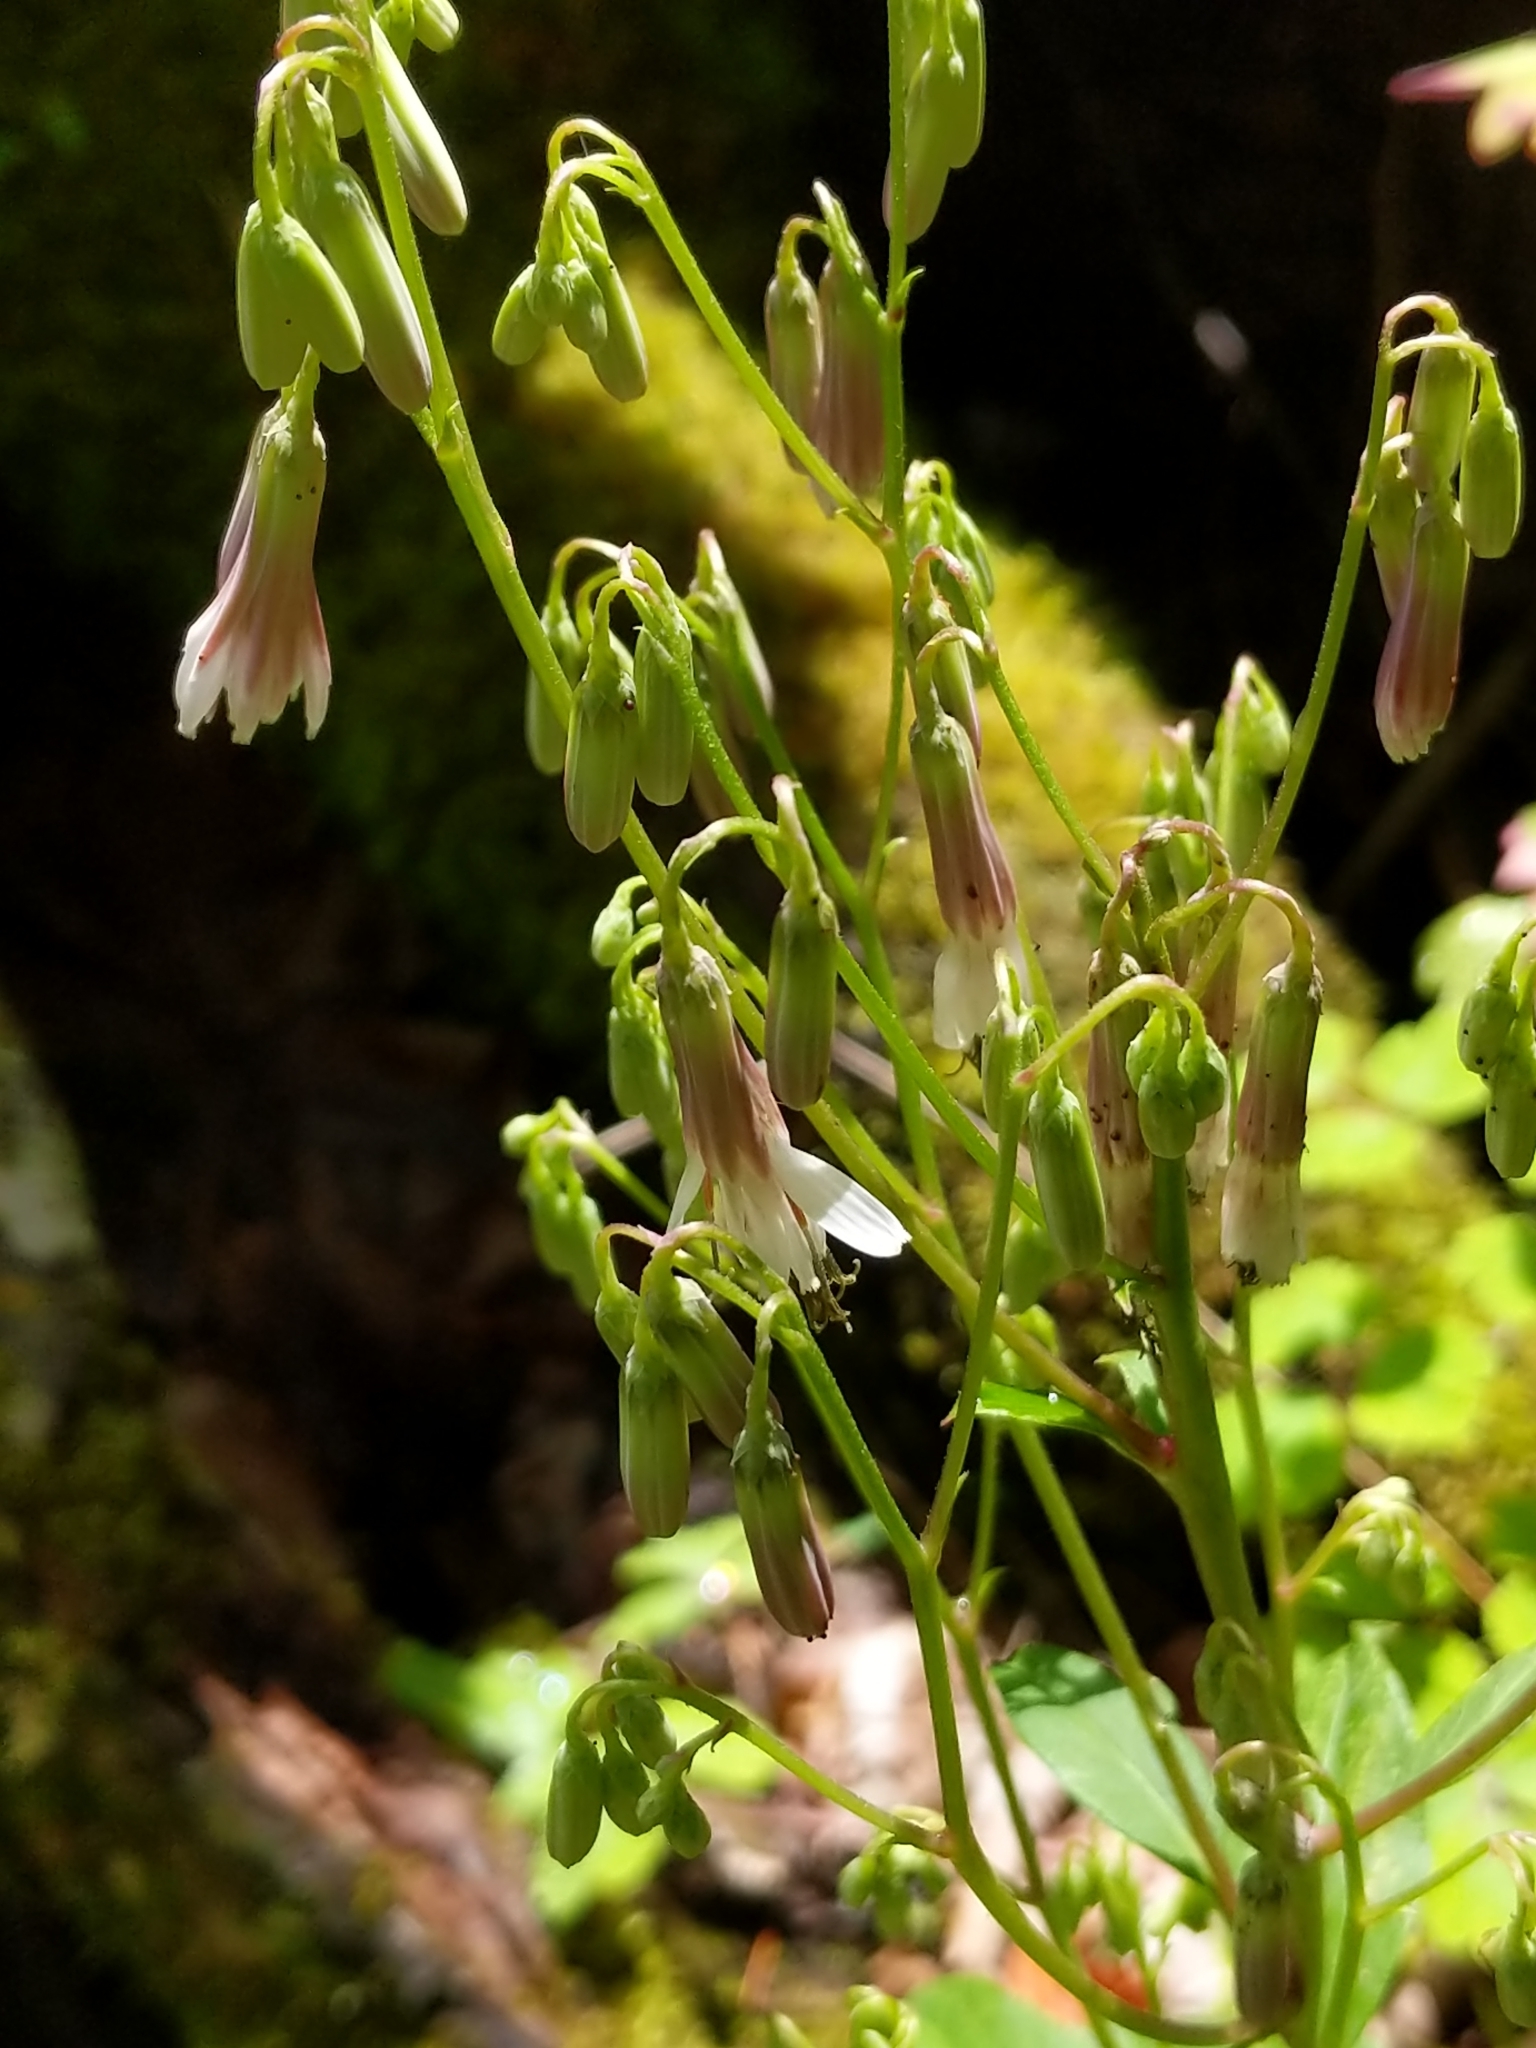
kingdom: Plantae
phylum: Tracheophyta
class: Magnoliopsida
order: Asterales
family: Asteraceae
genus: Nabalus
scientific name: Nabalus albus
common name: White rattlesnakeroot
